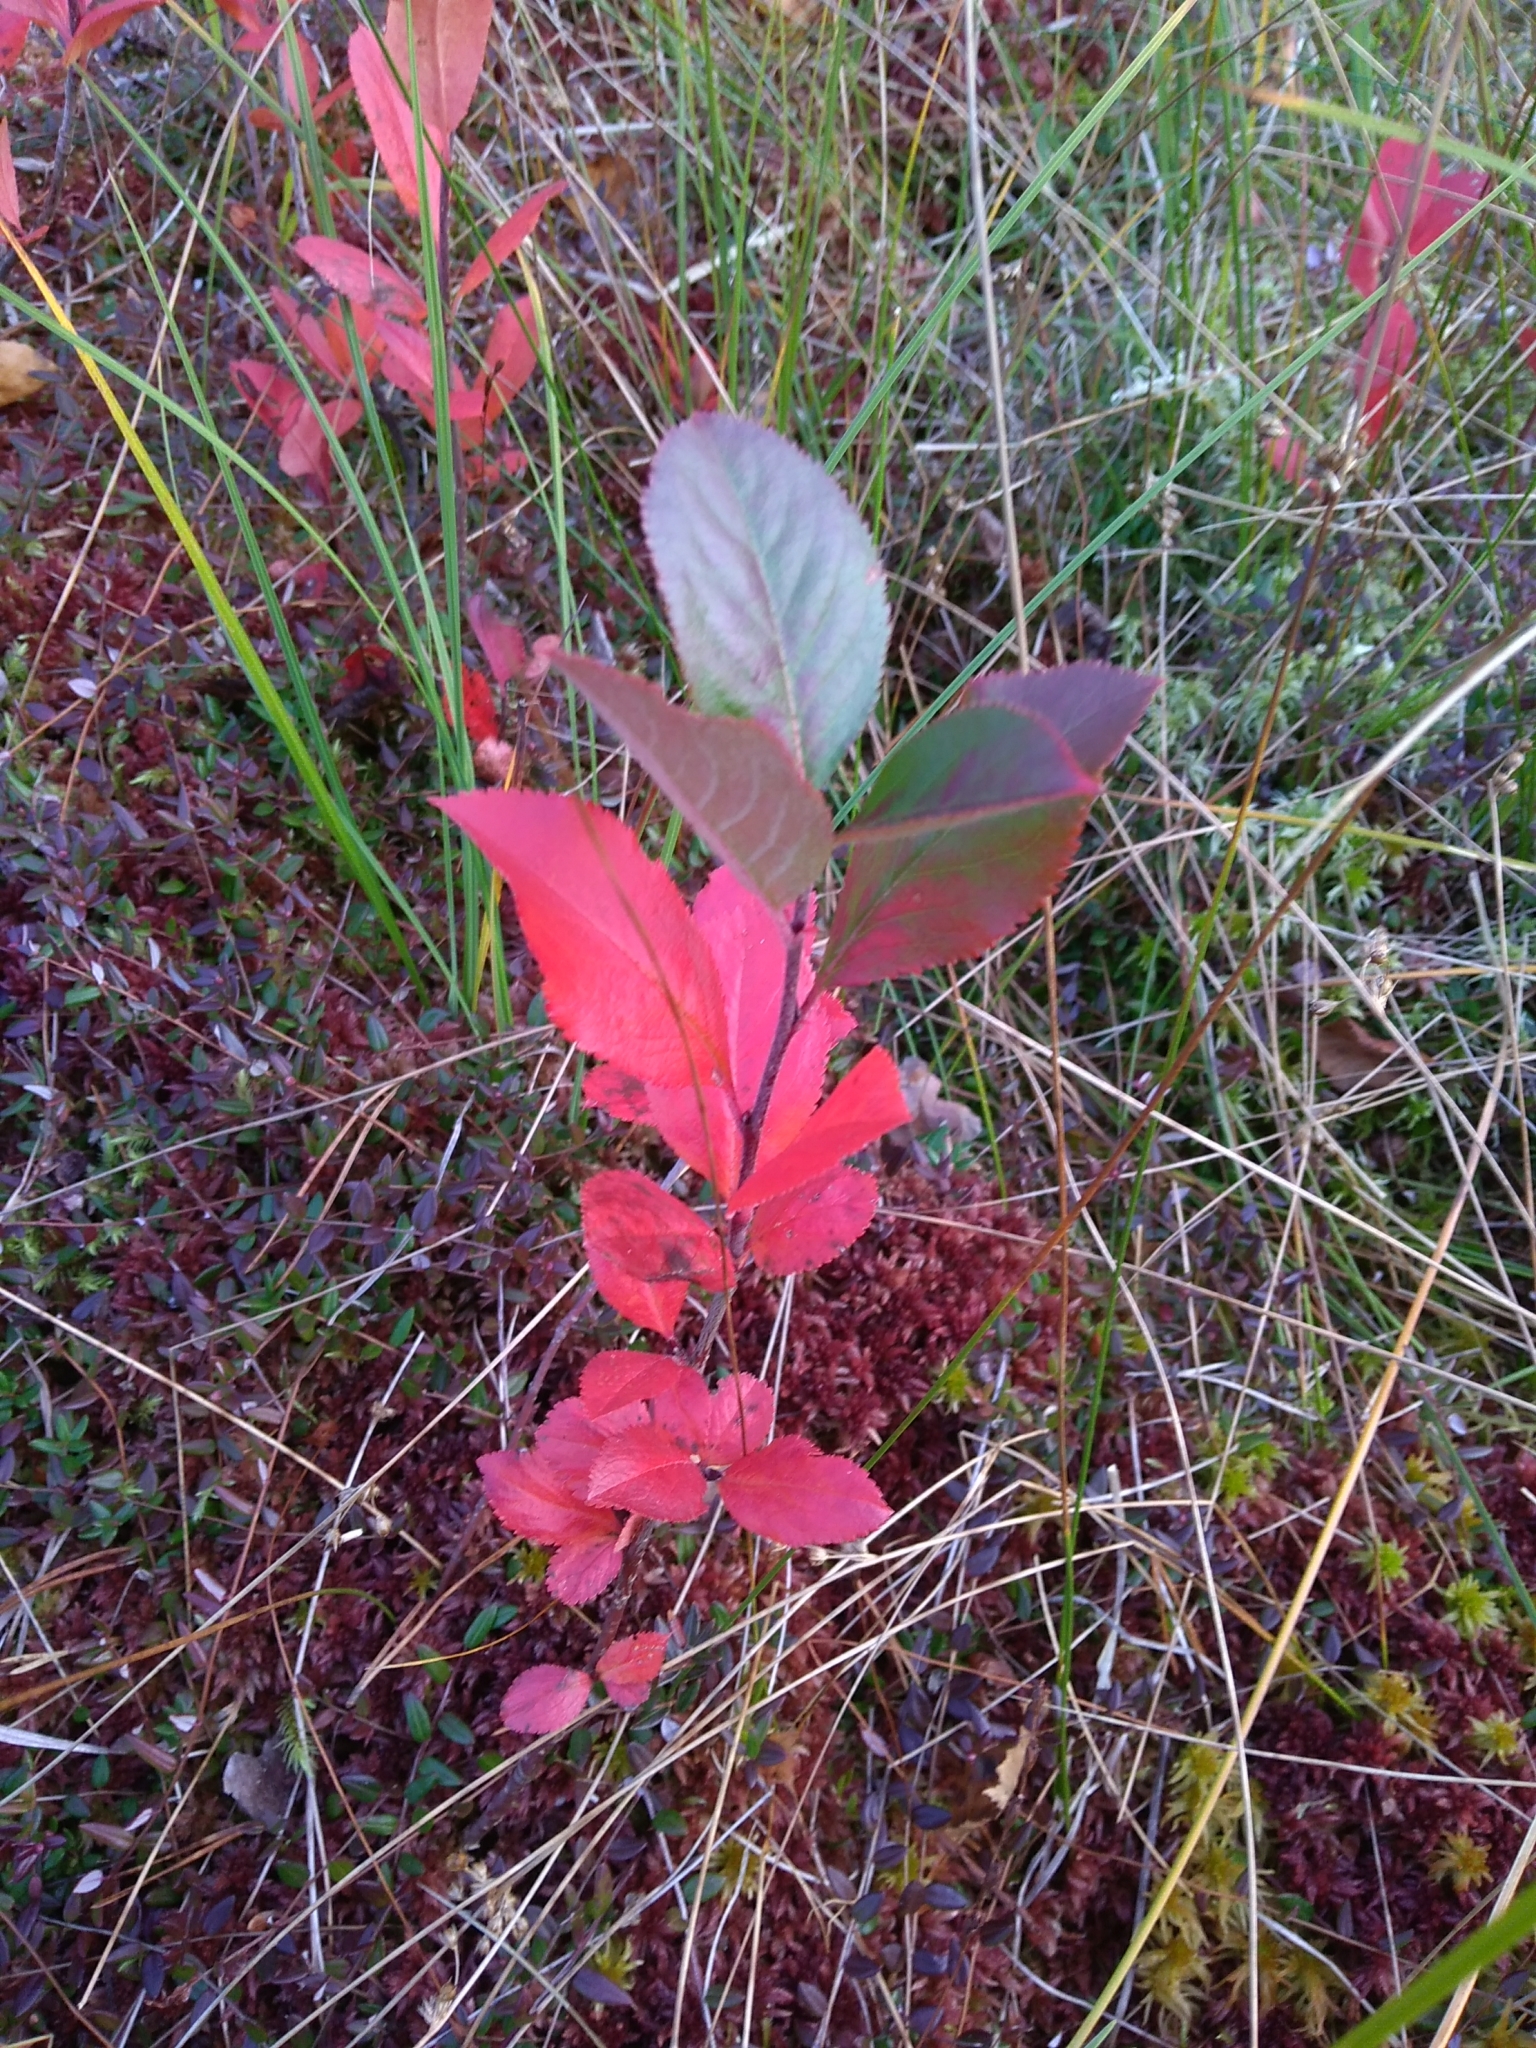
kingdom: Plantae
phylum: Tracheophyta
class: Magnoliopsida
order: Rosales
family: Rosaceae
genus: Sorbaronia
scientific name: Sorbaronia arsenii
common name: Arsène's mountain-ash
